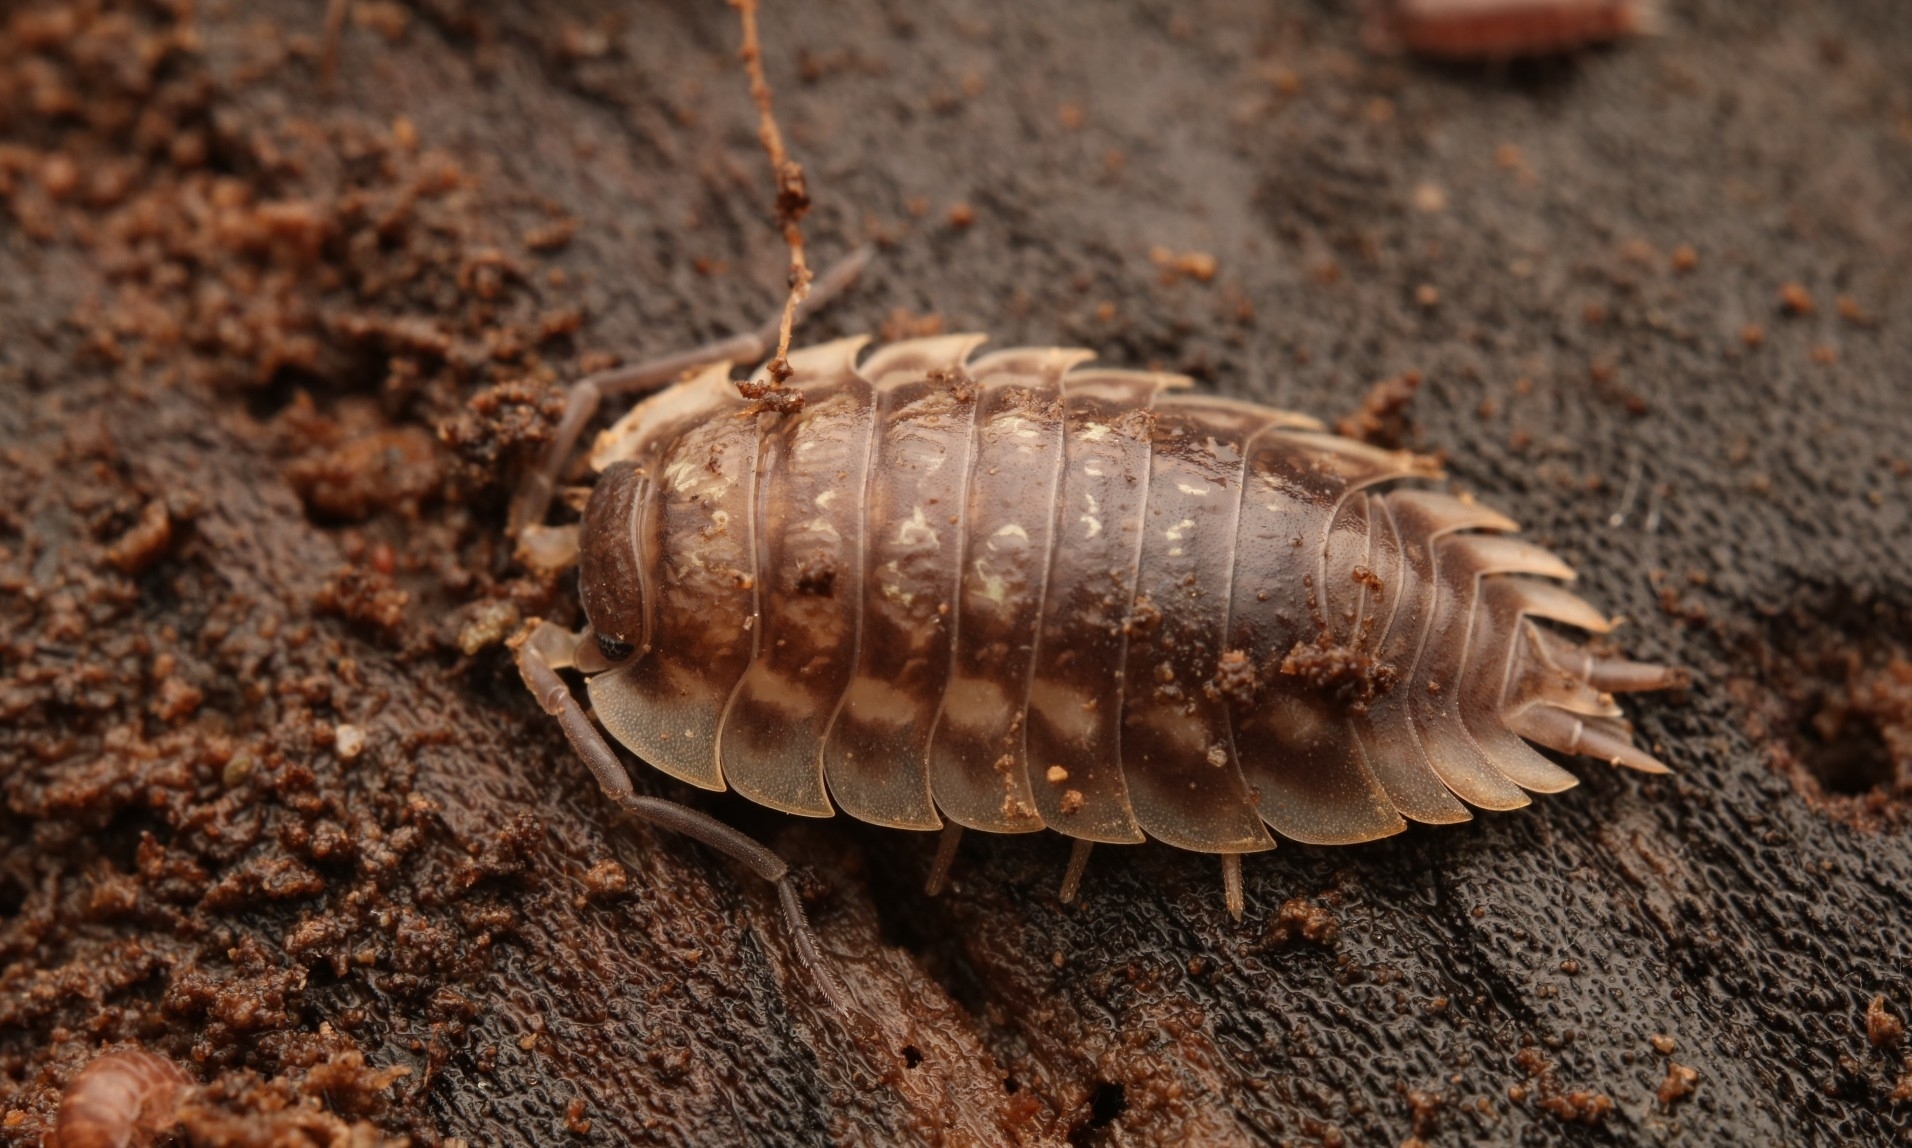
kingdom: Animalia
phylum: Arthropoda
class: Malacostraca
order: Isopoda
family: Oniscidae
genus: Oniscus
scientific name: Oniscus asellus
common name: Common shiny woodlouse
